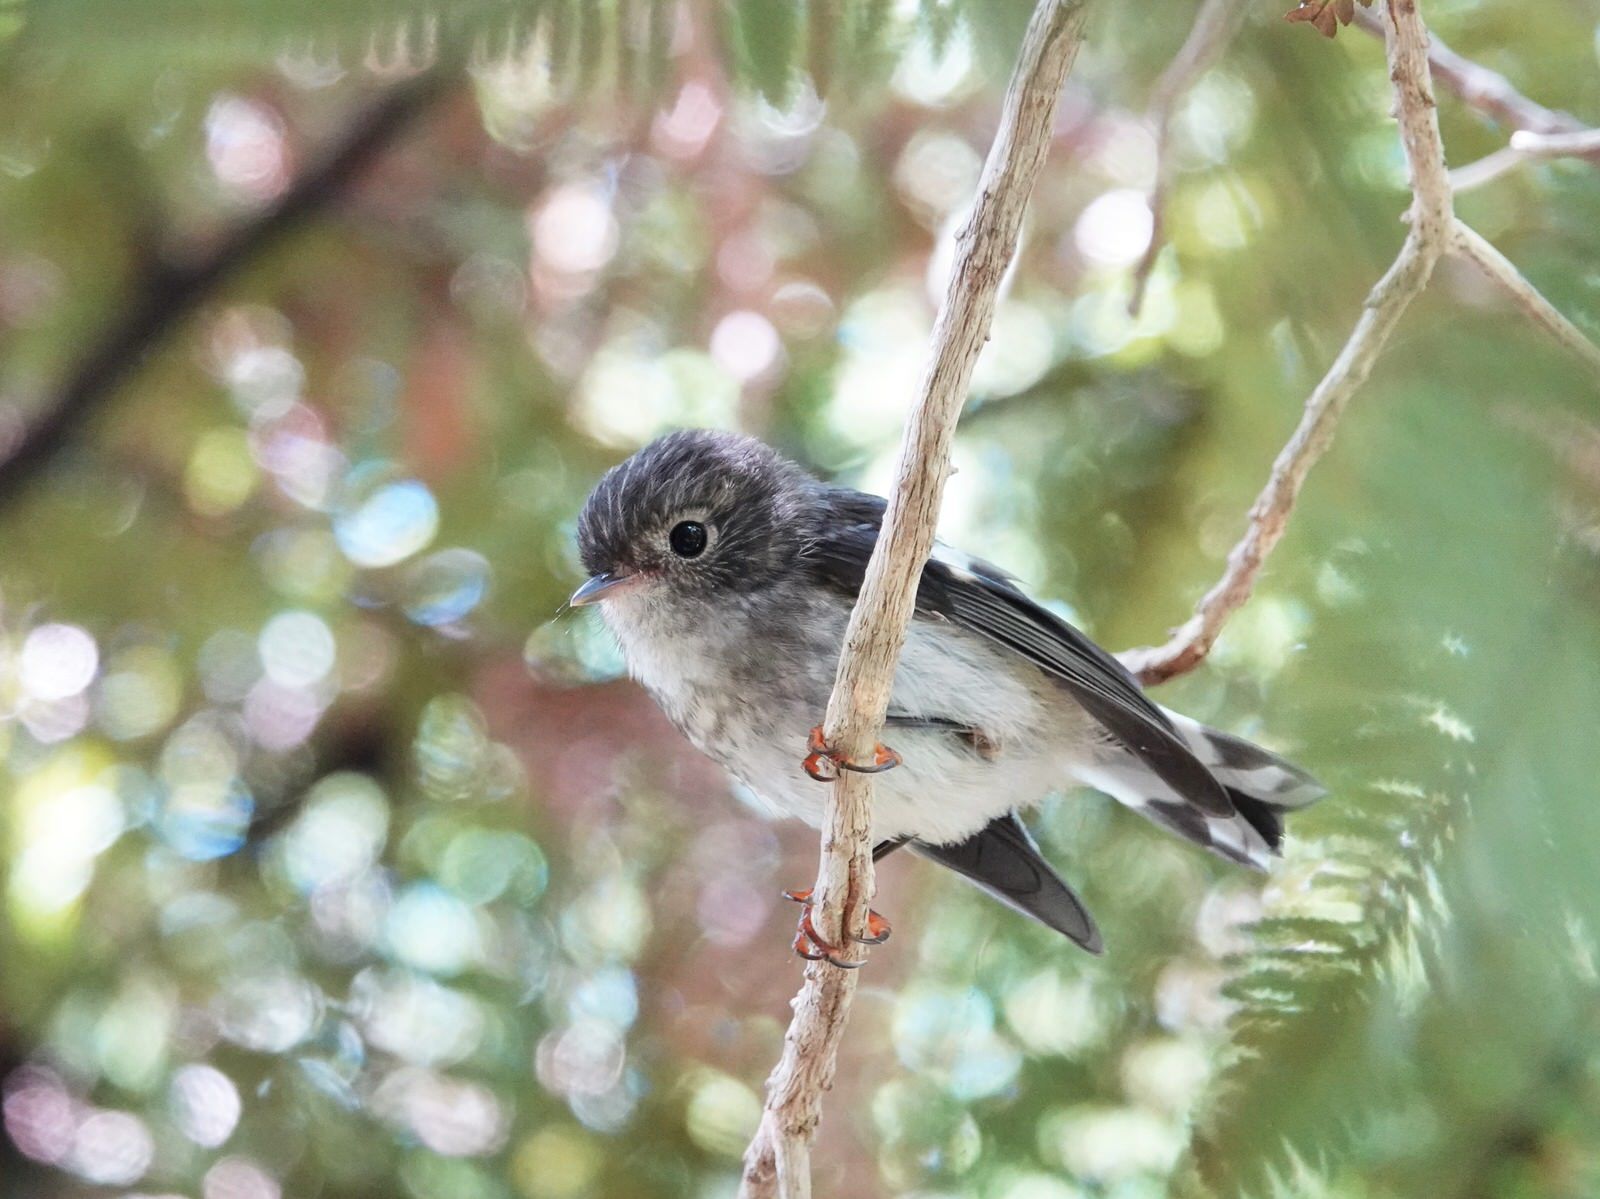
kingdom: Animalia
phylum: Chordata
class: Aves
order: Passeriformes
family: Petroicidae
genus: Petroica
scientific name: Petroica macrocephala
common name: Tomtit
